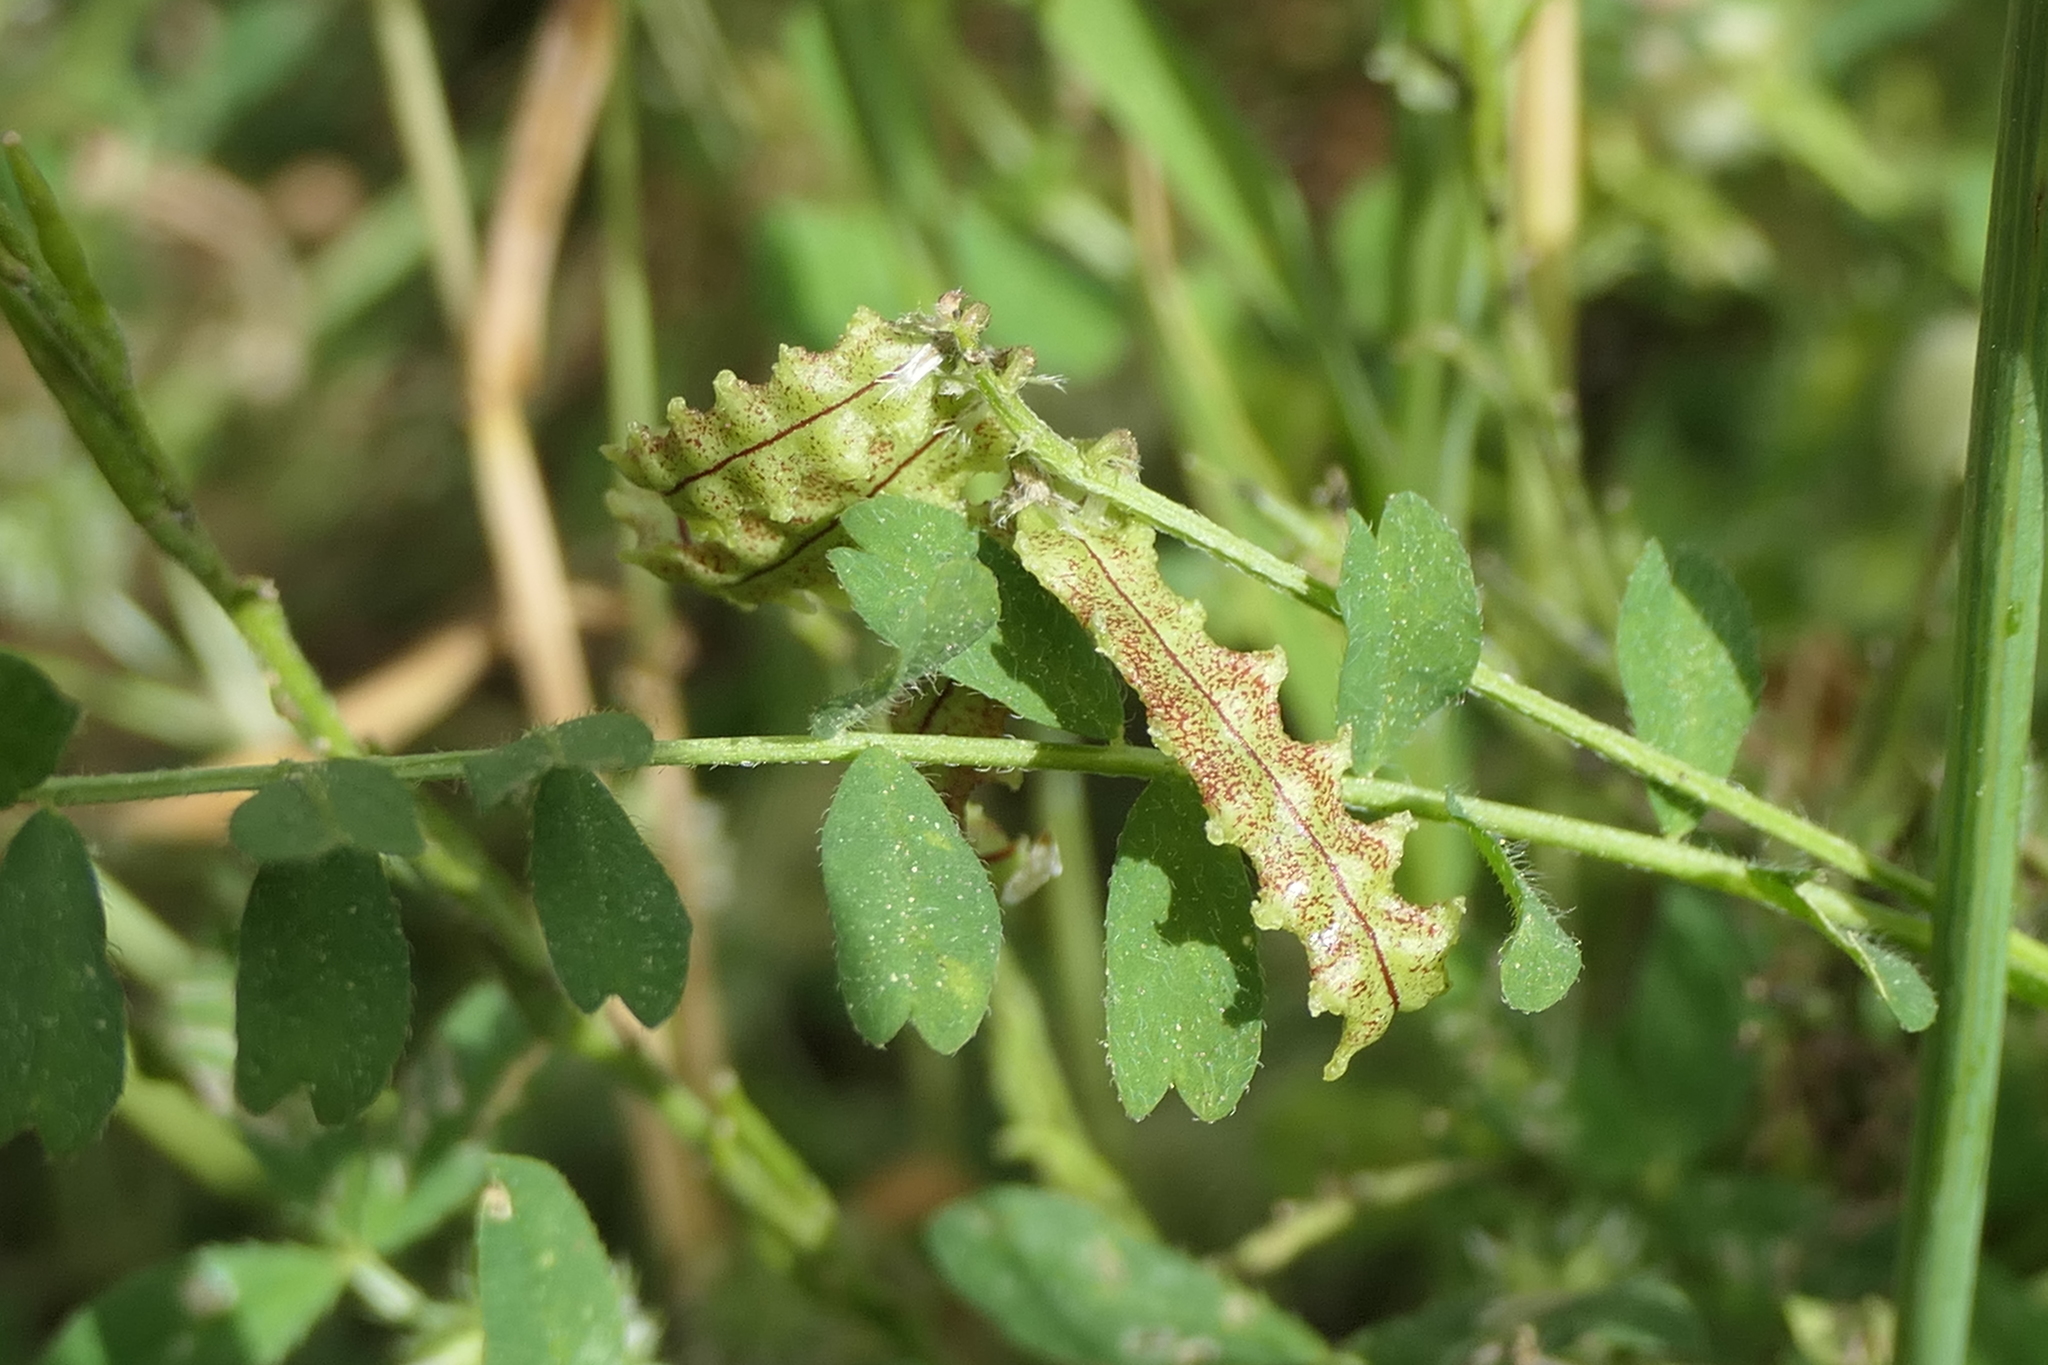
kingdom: Plantae
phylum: Tracheophyta
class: Magnoliopsida
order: Fabales
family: Fabaceae
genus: Biserrula
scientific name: Biserrula pelecinus
